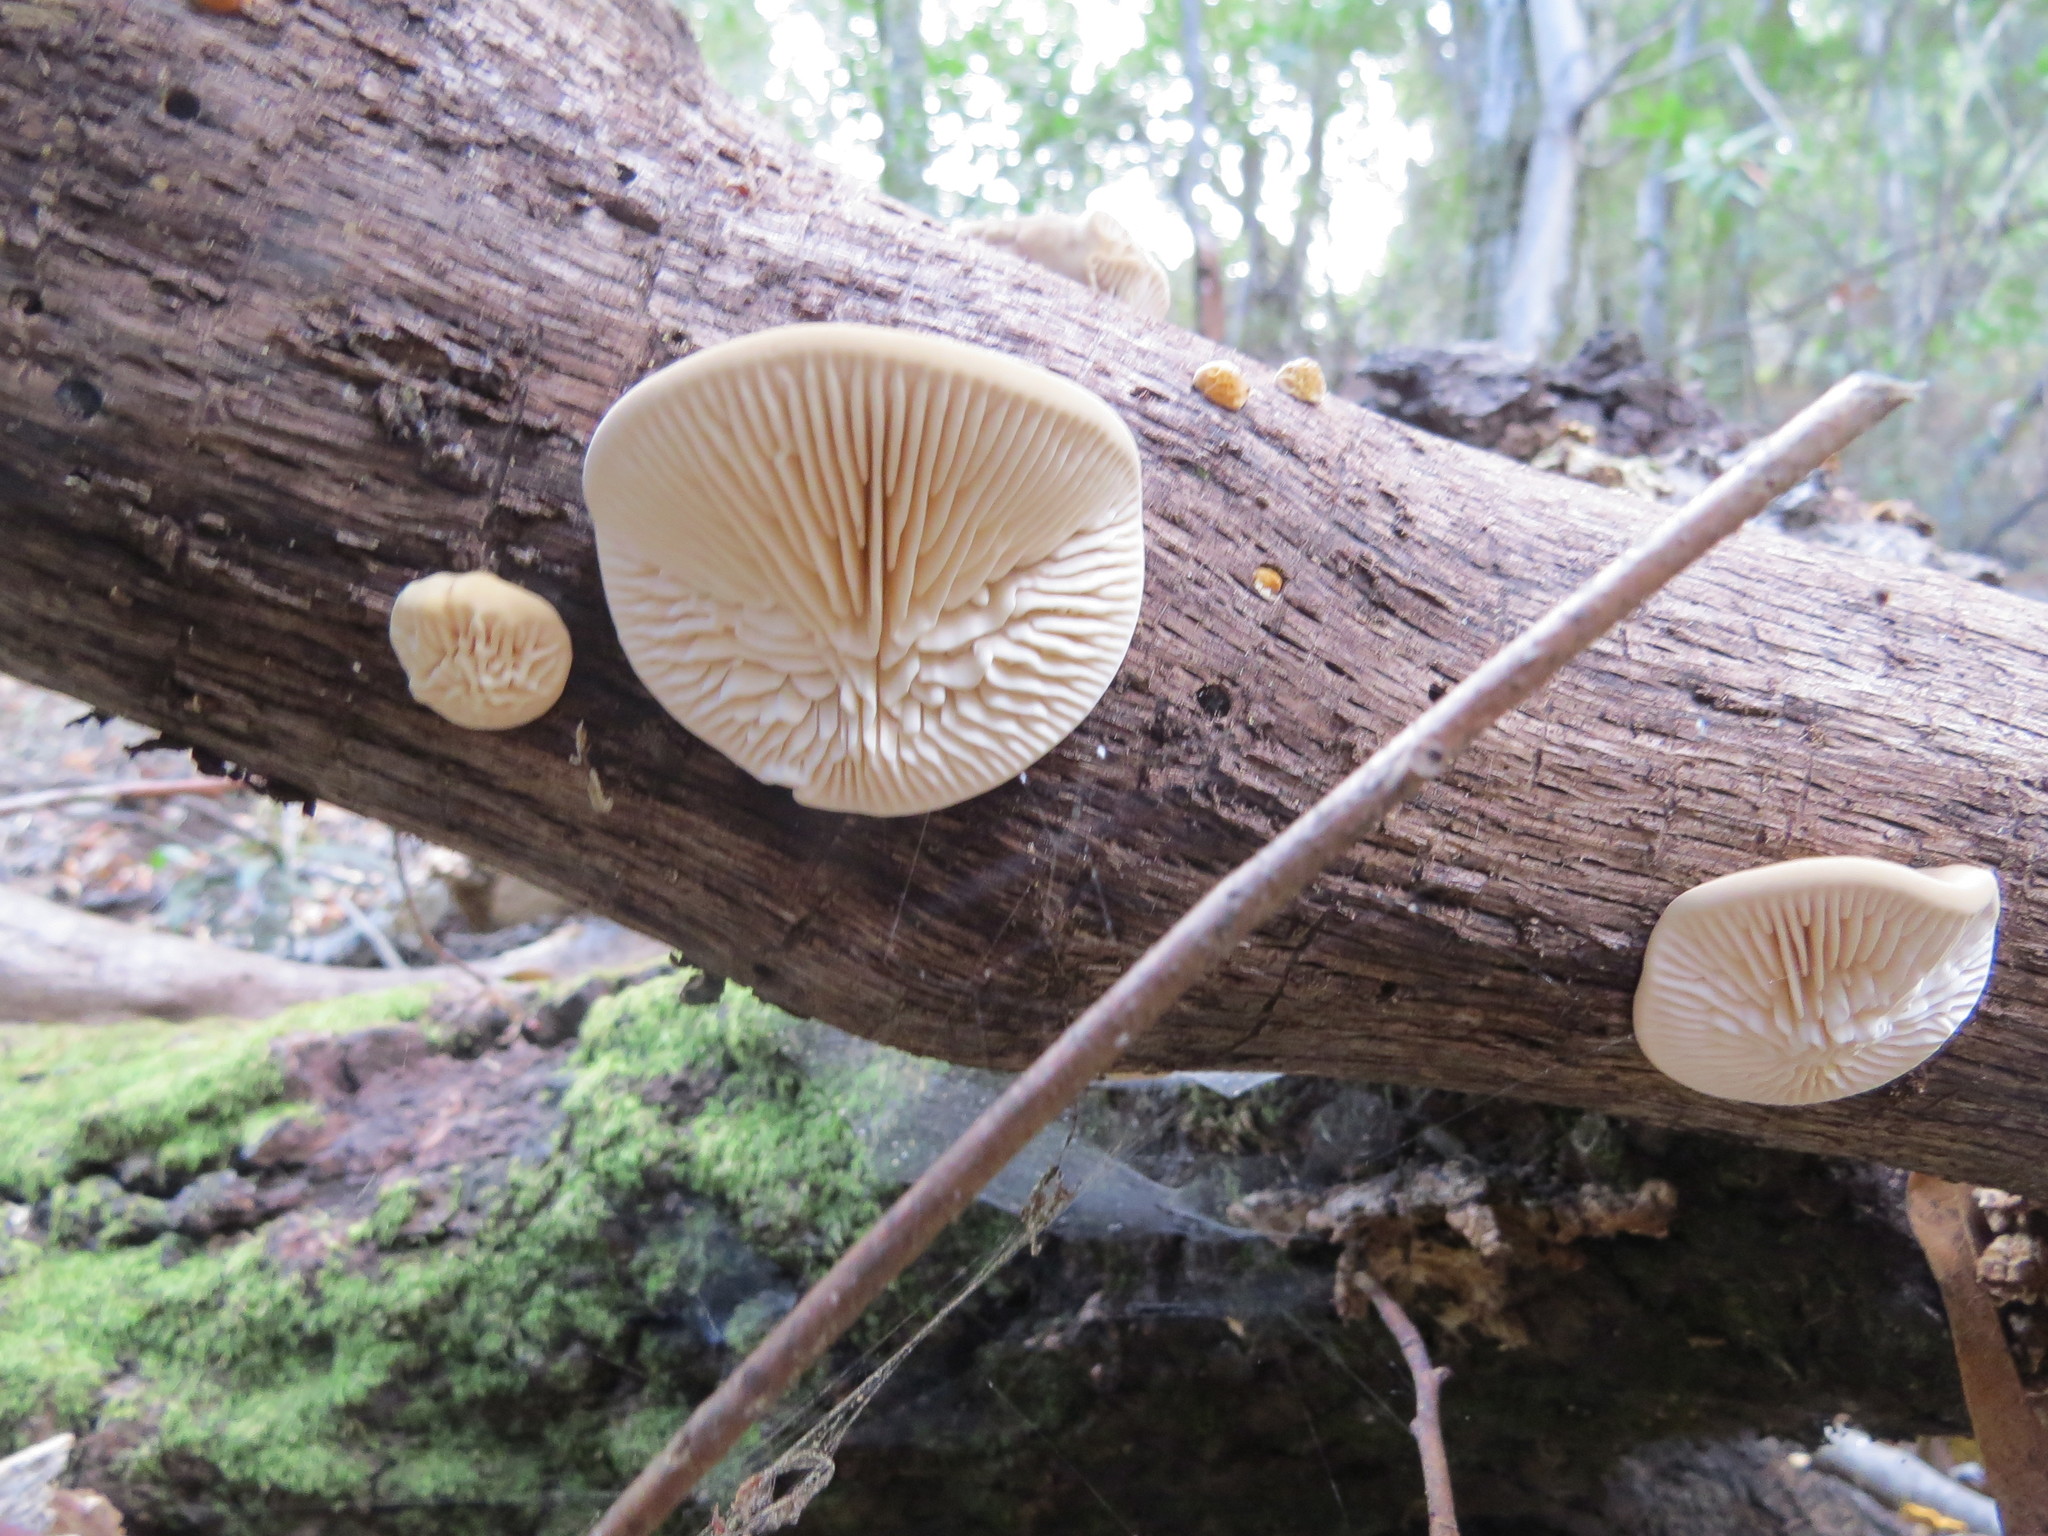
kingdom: Fungi
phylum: Basidiomycota
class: Agaricomycetes
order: Polyporales
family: Polyporaceae
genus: Lenzites
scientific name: Lenzites betulinus
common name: Birch mazegill
